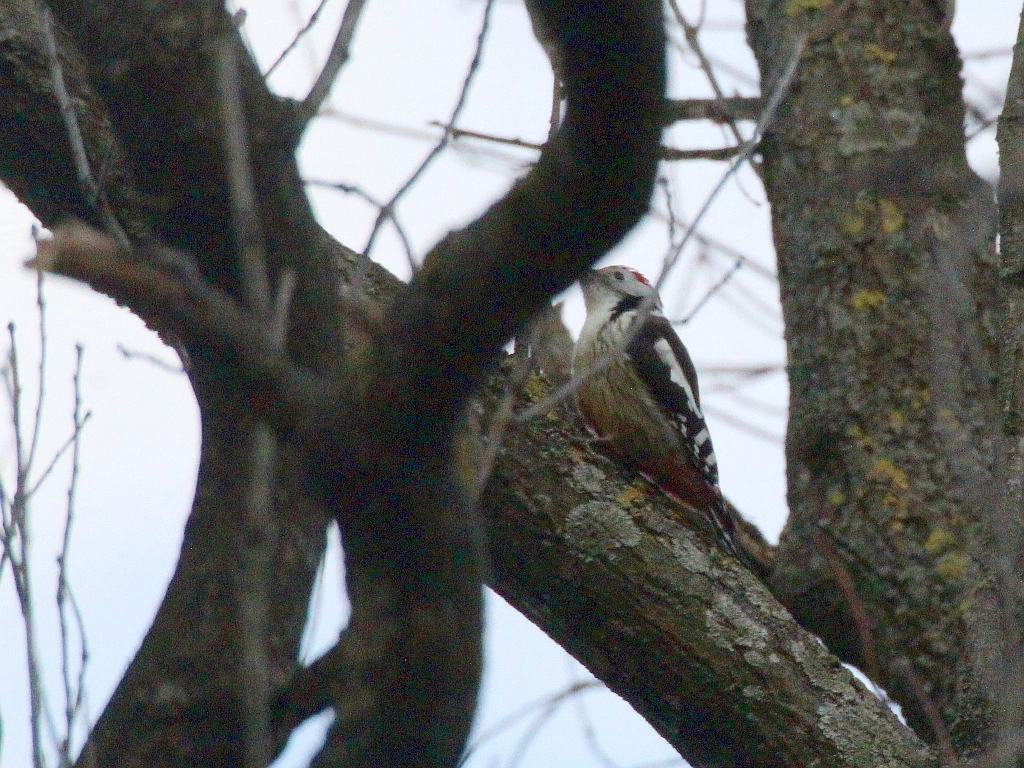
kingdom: Animalia
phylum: Chordata
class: Aves
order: Piciformes
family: Picidae
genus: Dendrocoptes
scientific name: Dendrocoptes medius
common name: Middle spotted woodpecker
